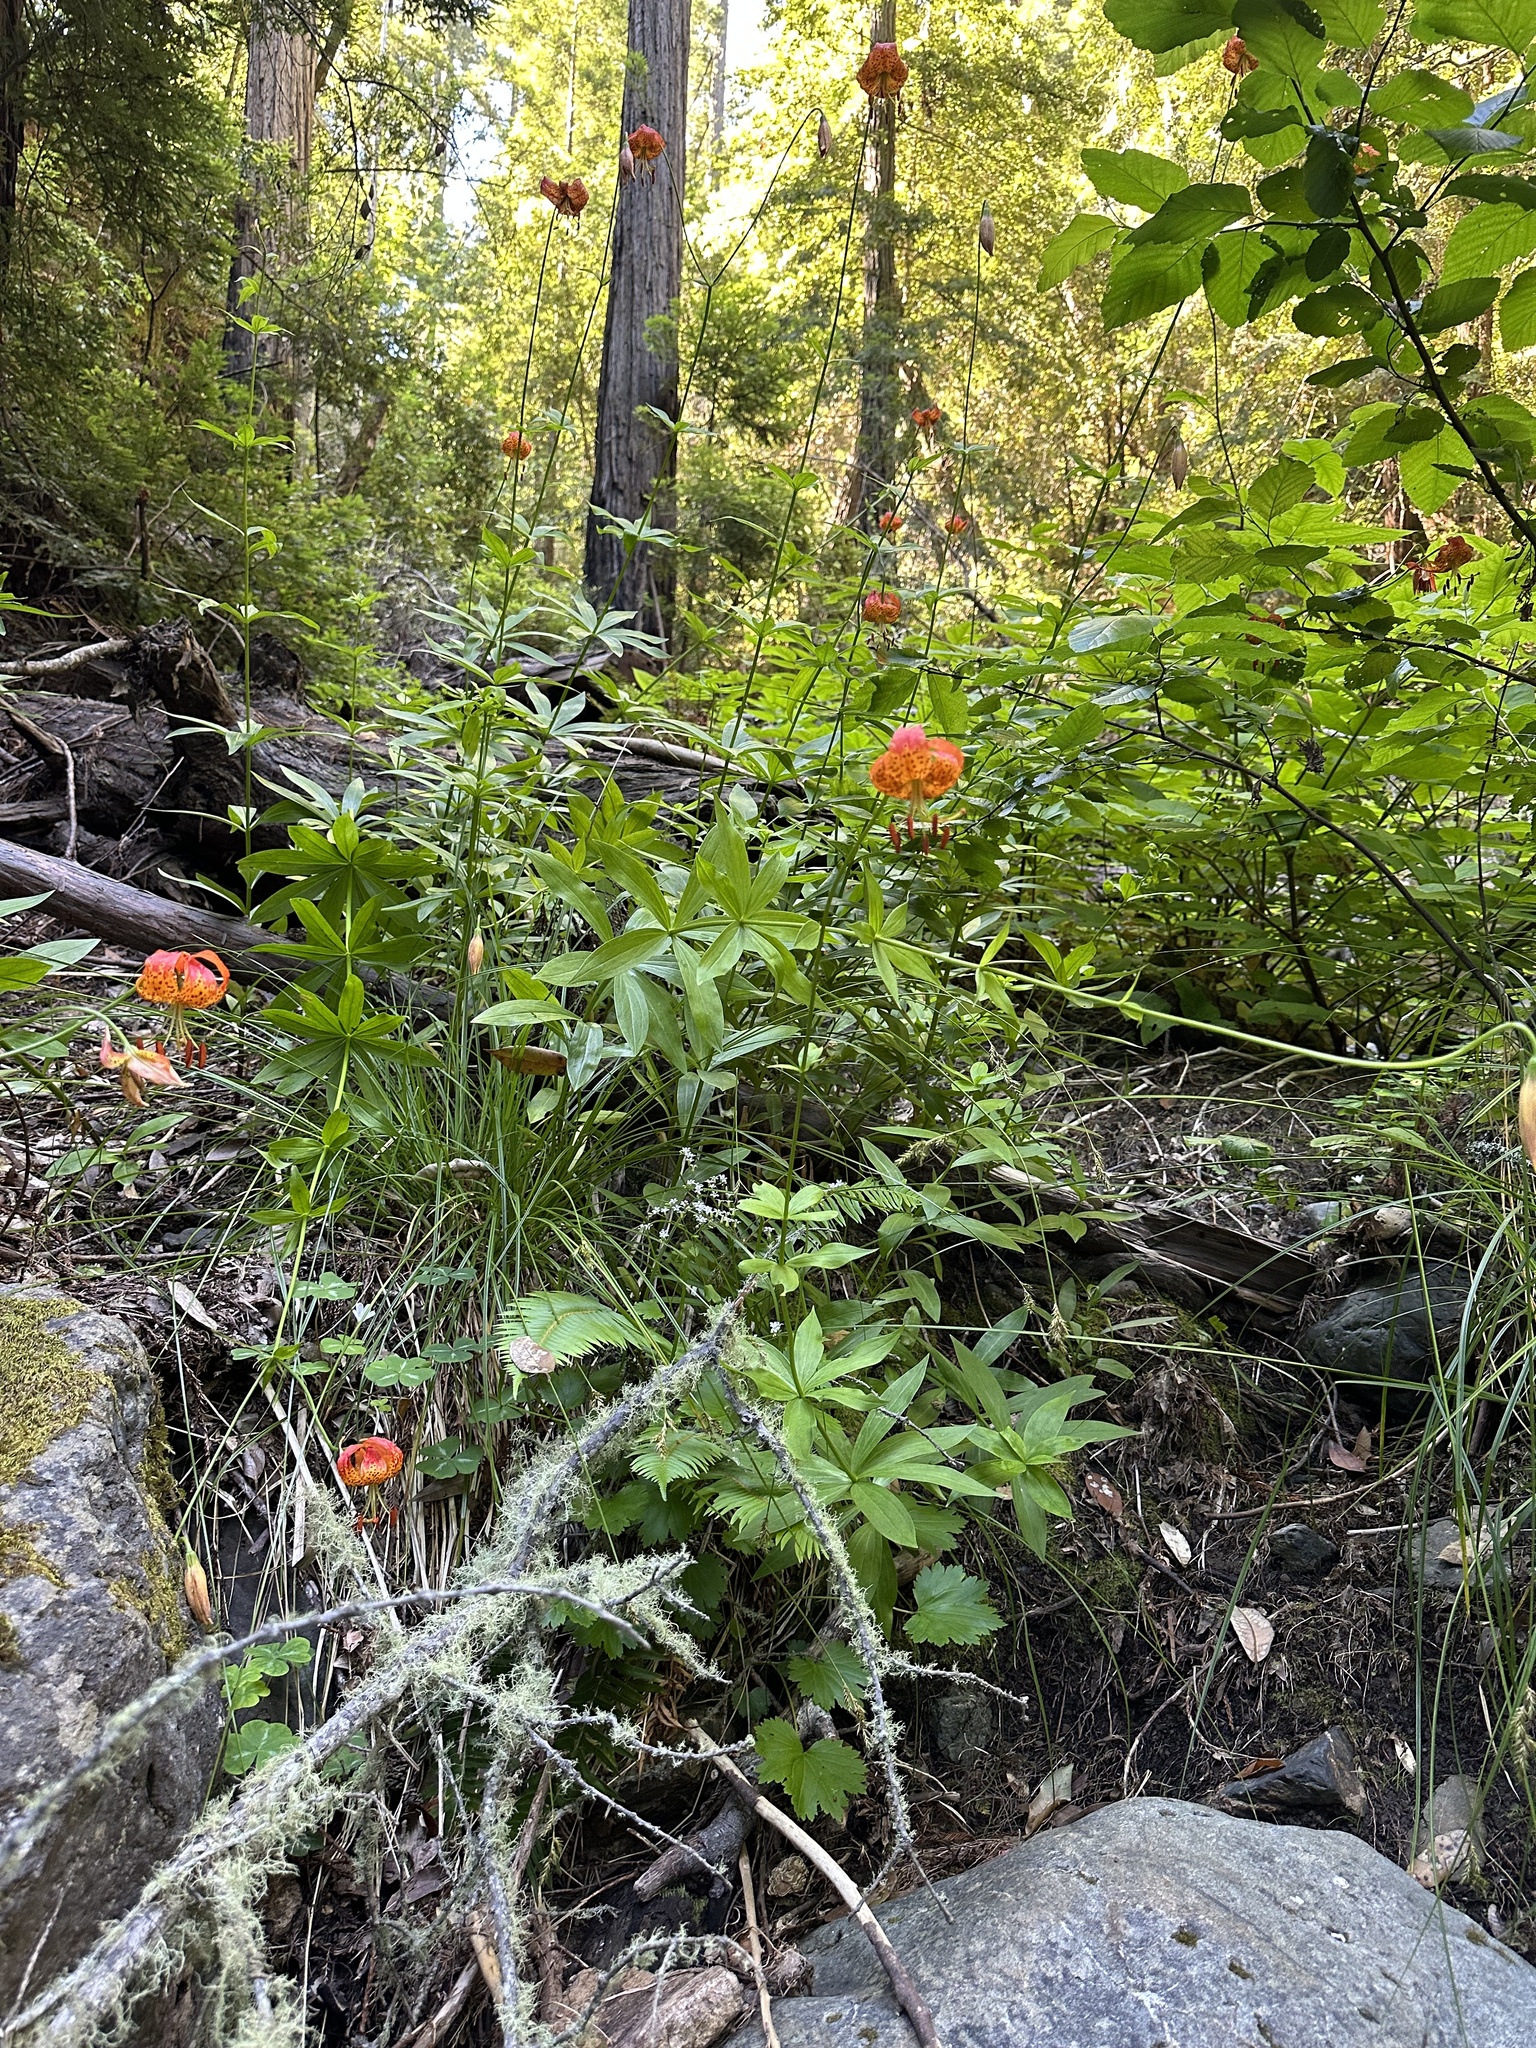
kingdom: Plantae
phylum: Tracheophyta
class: Liliopsida
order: Liliales
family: Liliaceae
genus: Lilium
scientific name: Lilium pardalinum
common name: Panther lily
